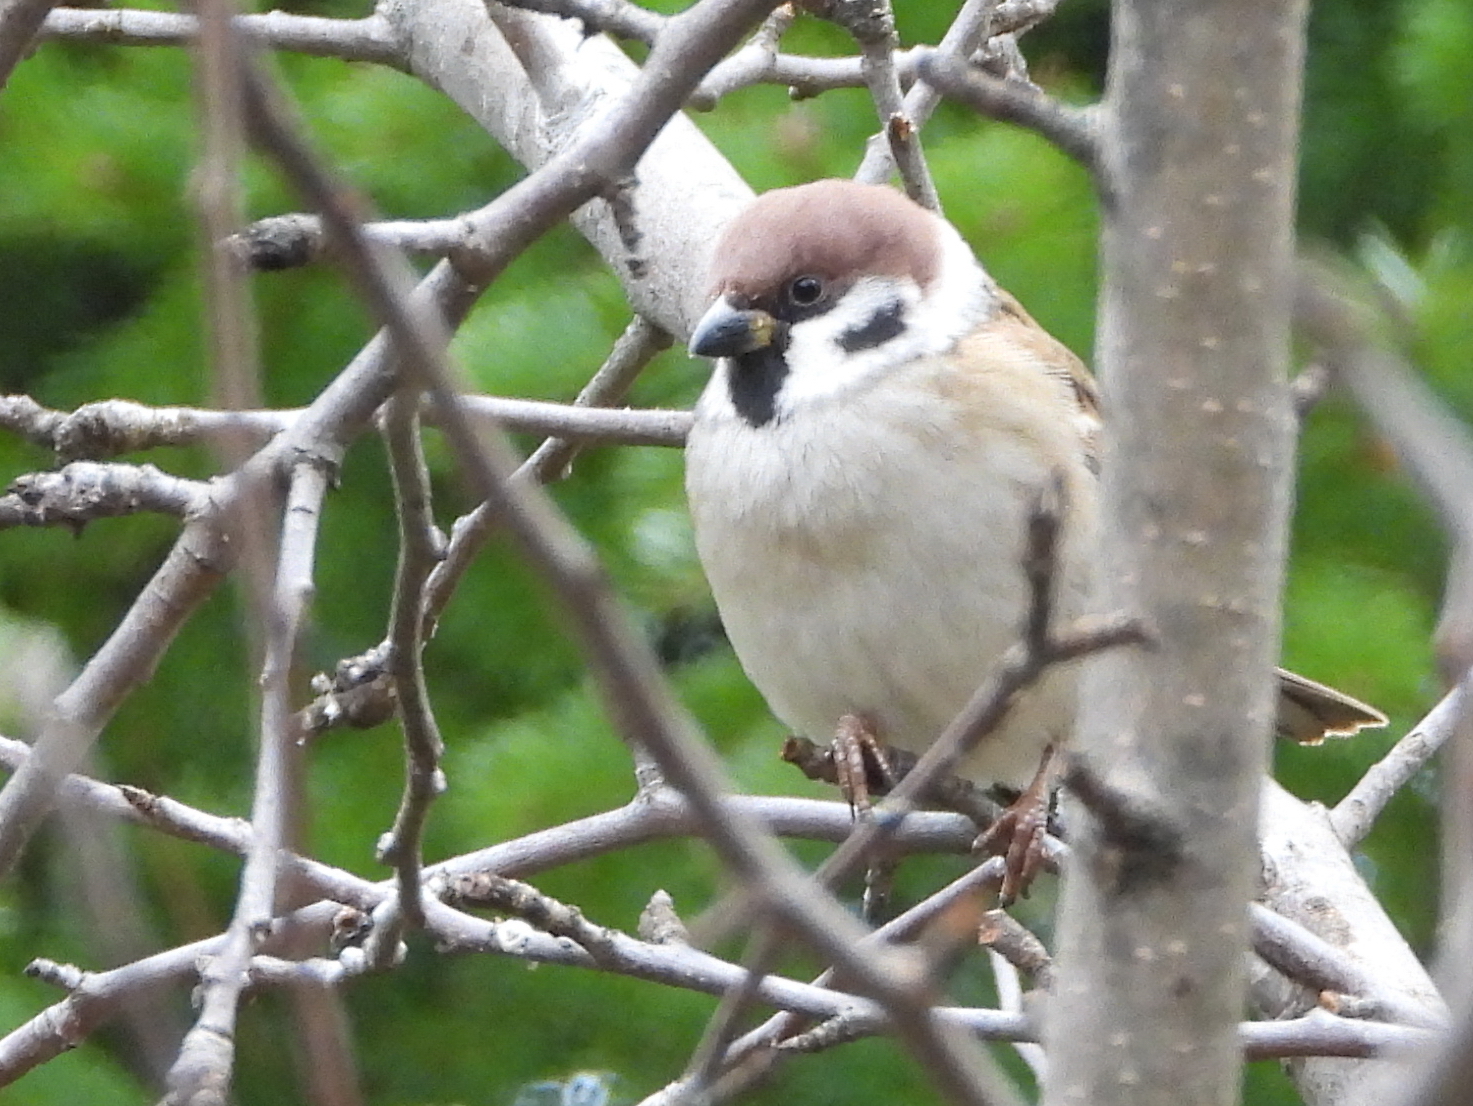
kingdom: Animalia
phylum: Chordata
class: Aves
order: Passeriformes
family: Passeridae
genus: Passer
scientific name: Passer montanus
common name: Eurasian tree sparrow
